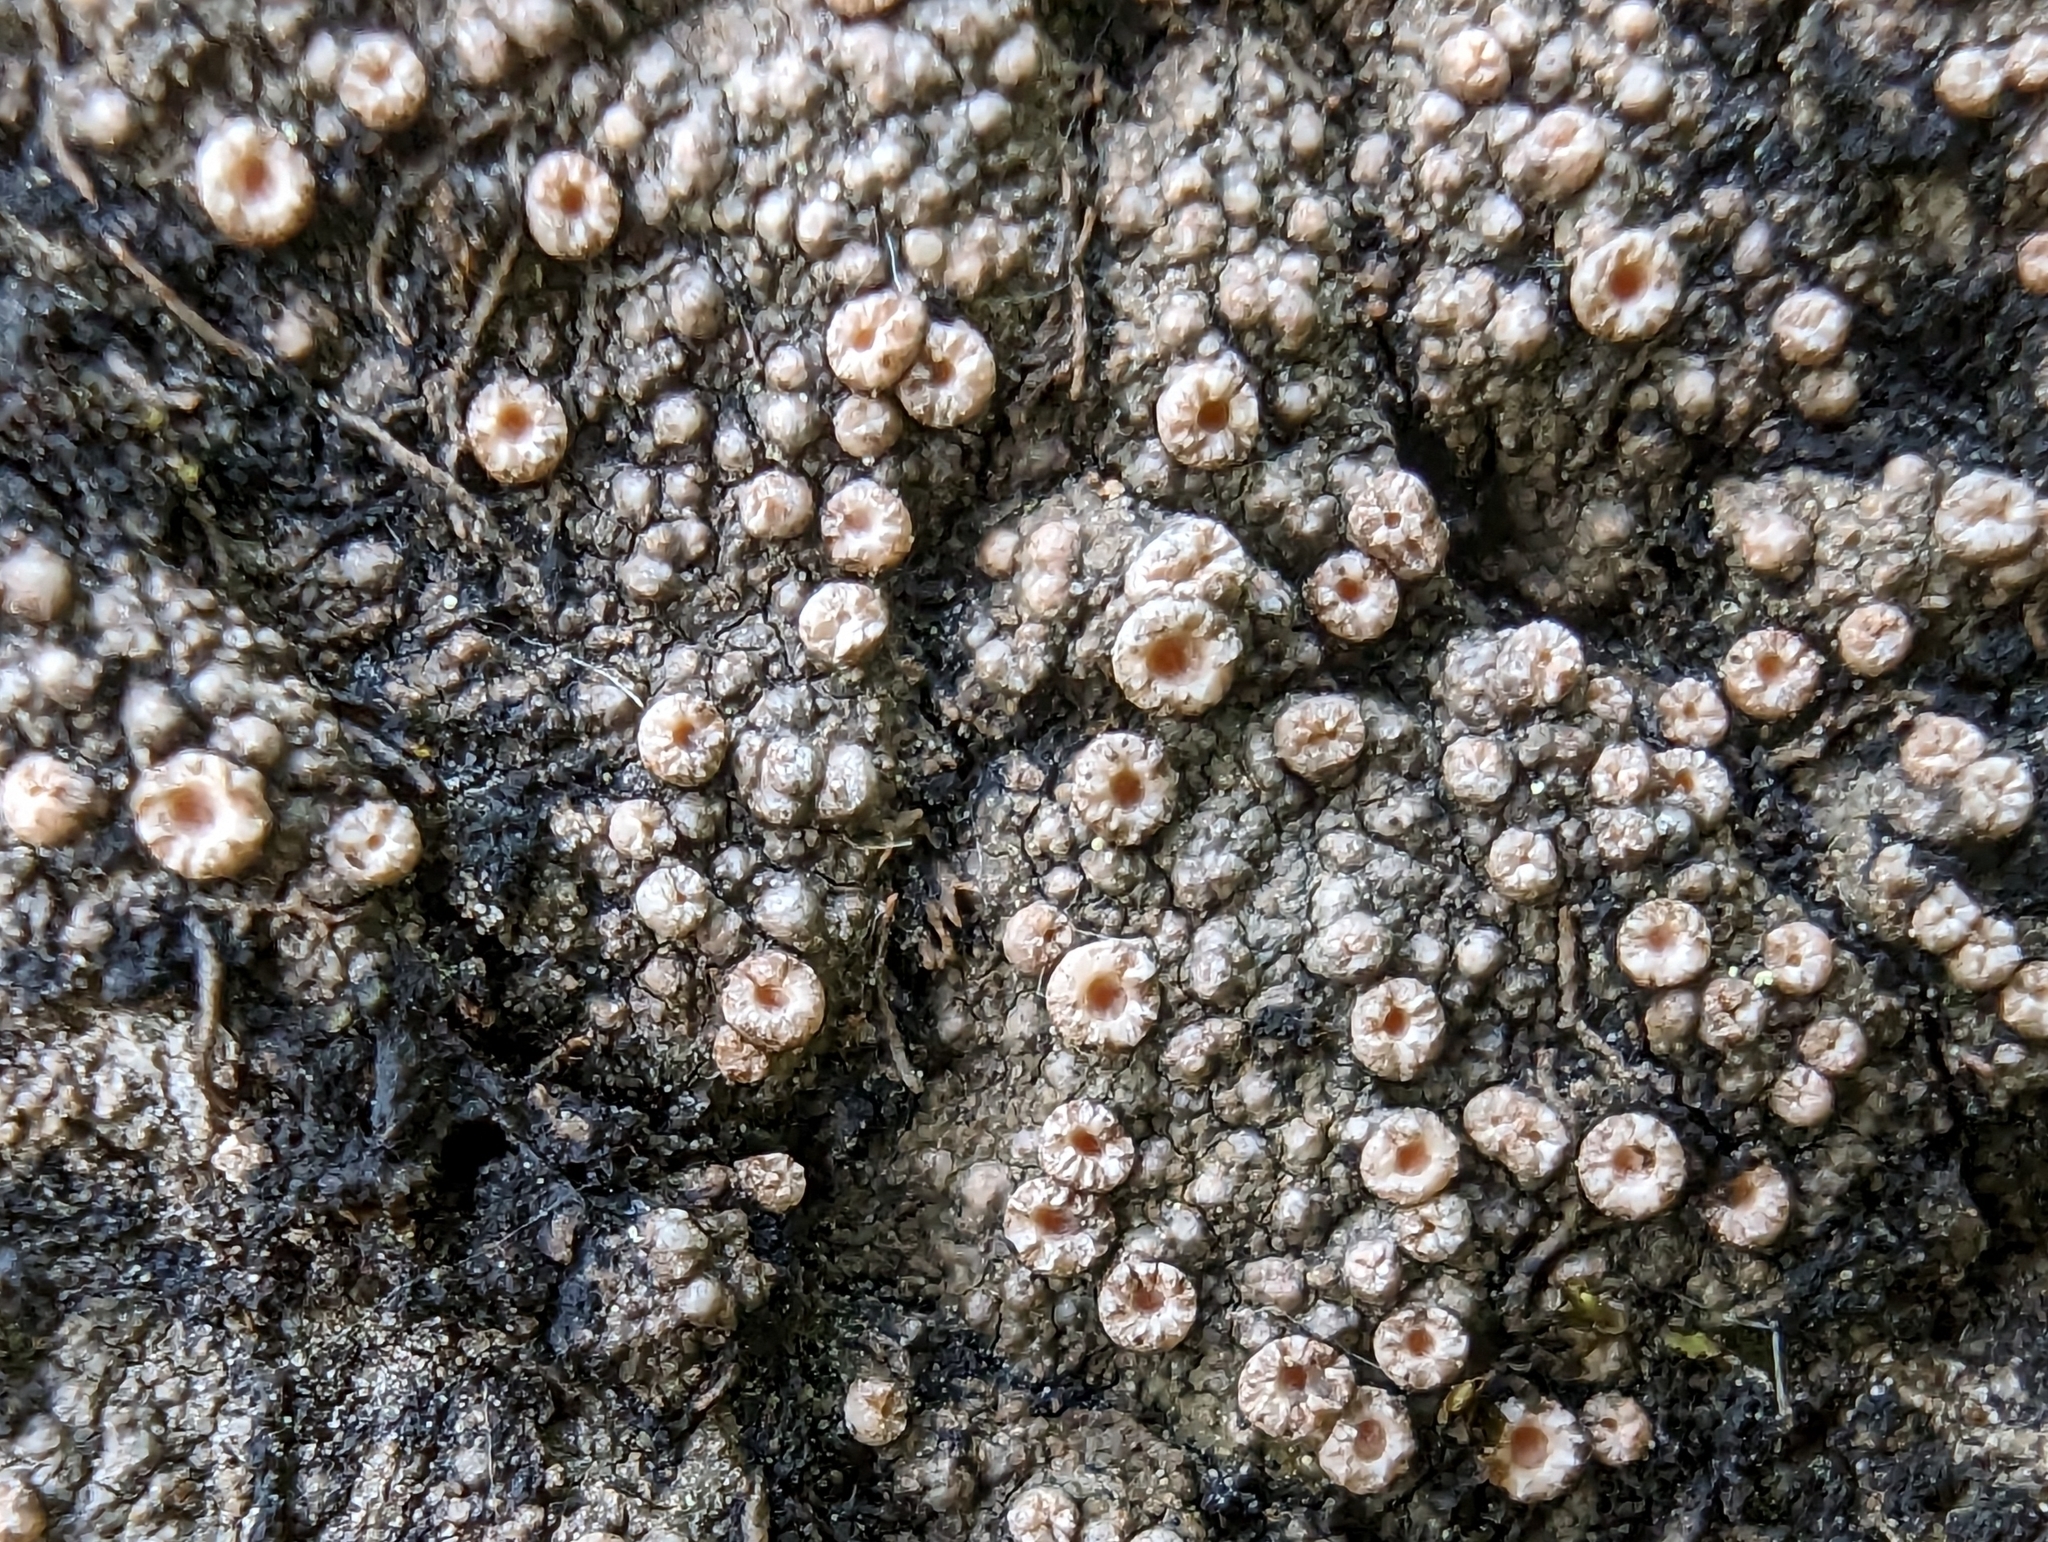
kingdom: Fungi
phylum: Ascomycota
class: Lecanoromycetes
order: Gyalectales
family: Gyalectaceae
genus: Gyalecta
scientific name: Gyalecta jenensis
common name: Rock dimple lichen
